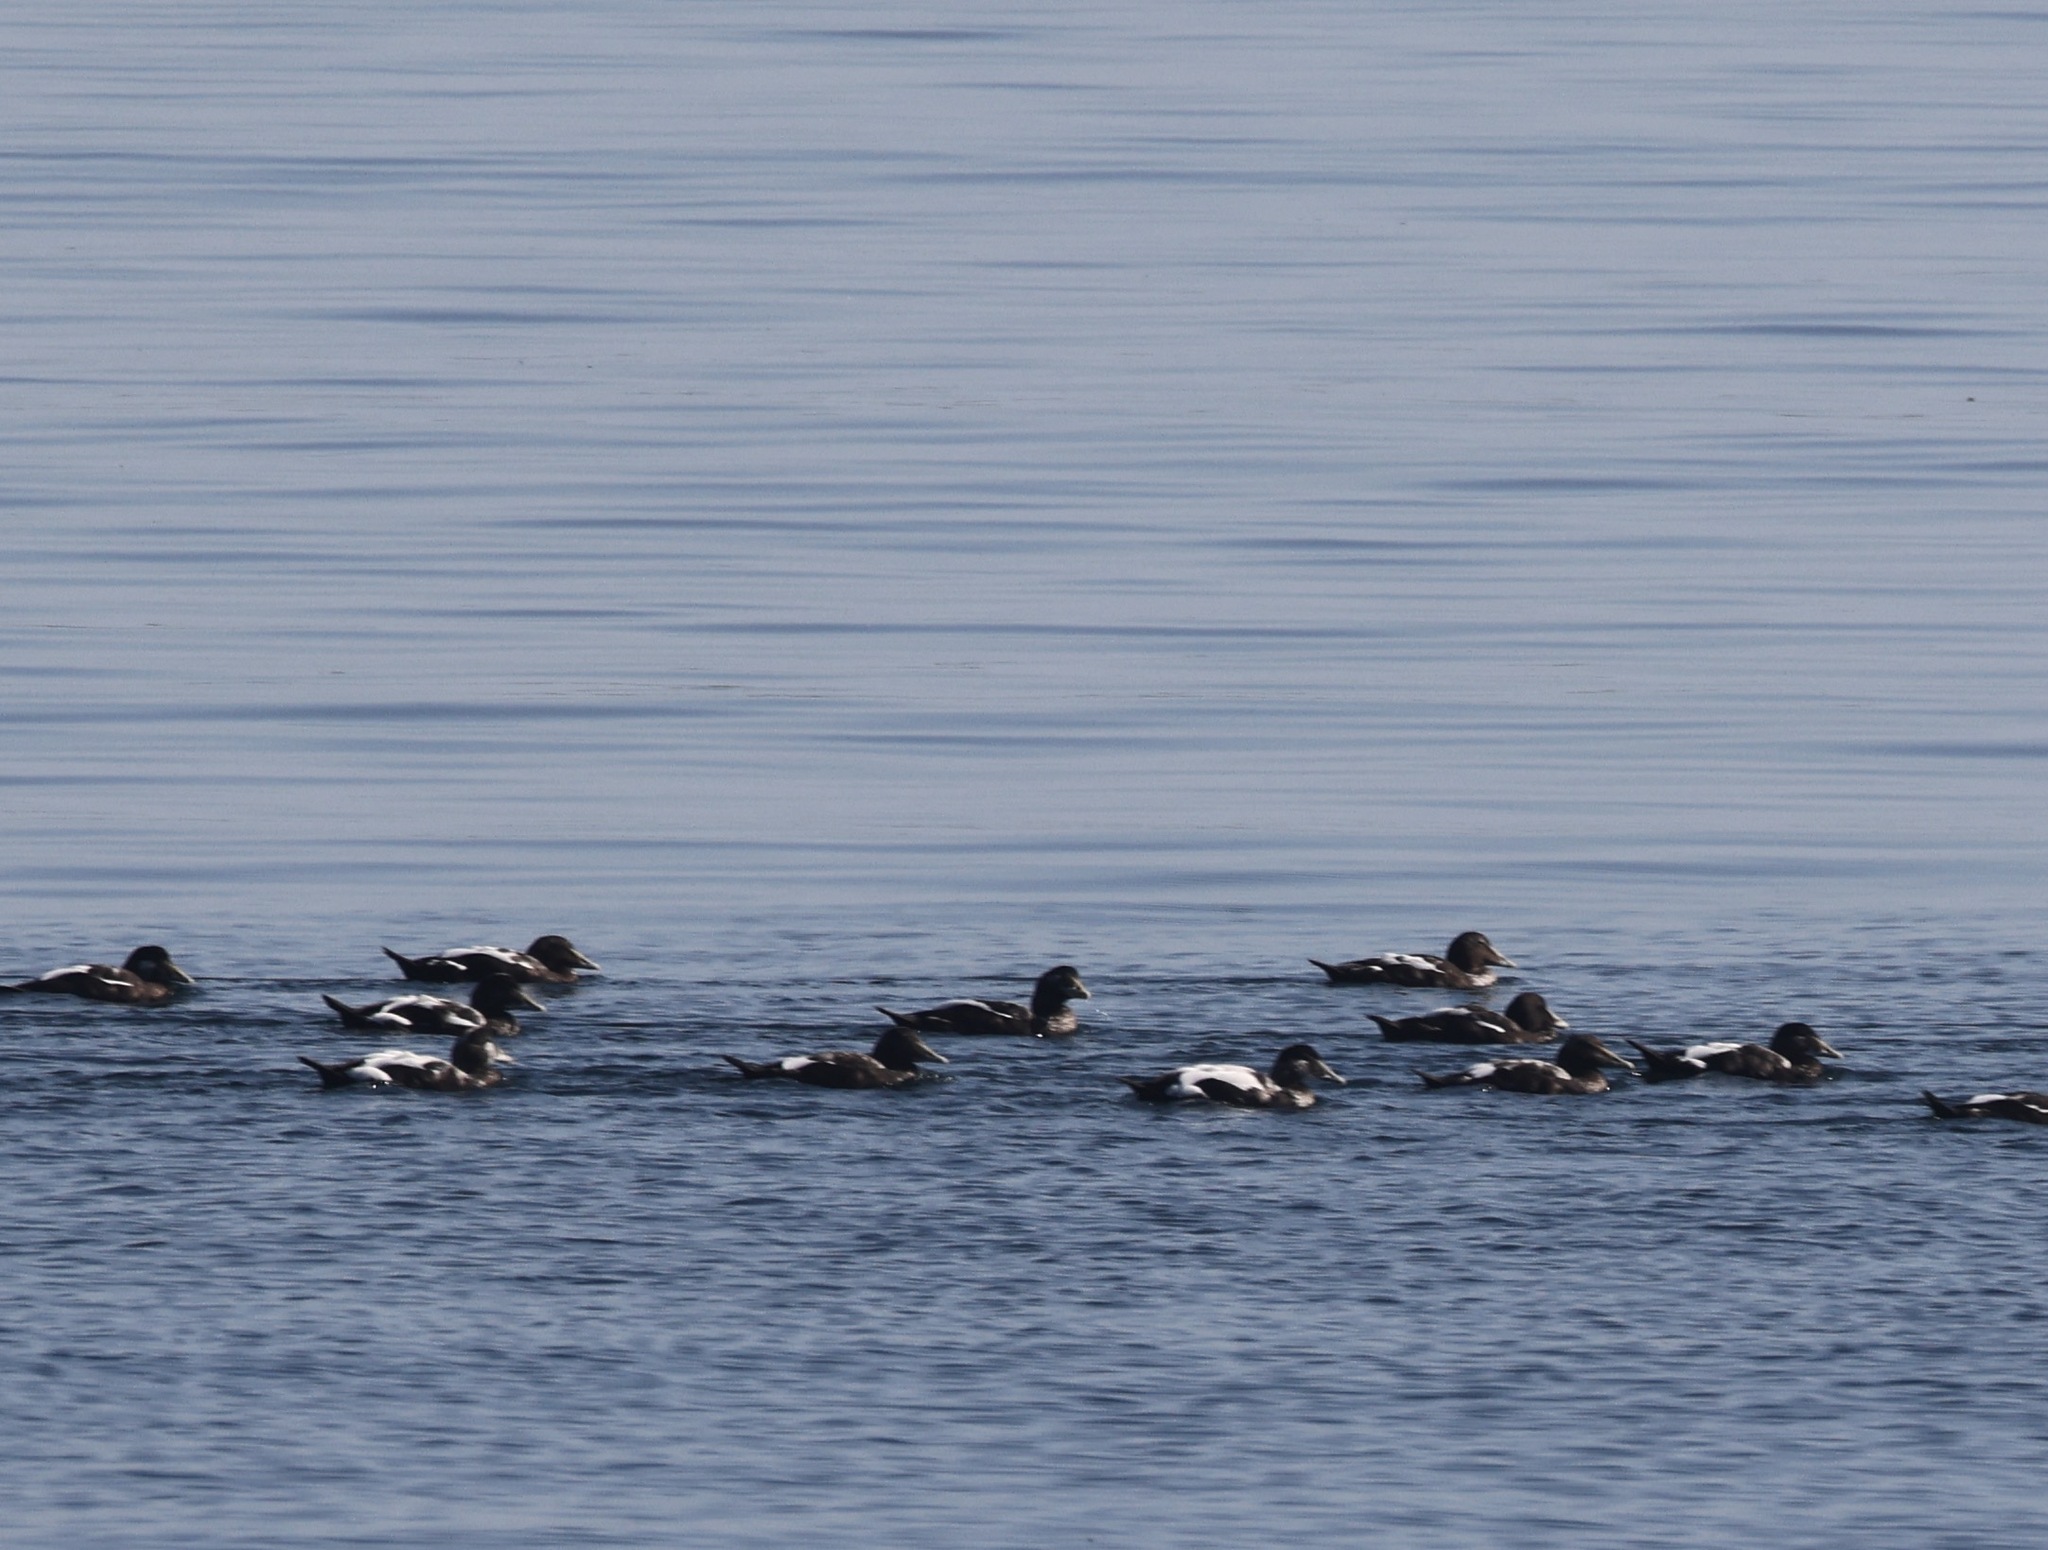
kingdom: Animalia
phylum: Chordata
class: Aves
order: Anseriformes
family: Anatidae
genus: Somateria
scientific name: Somateria mollissima
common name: Common eider
